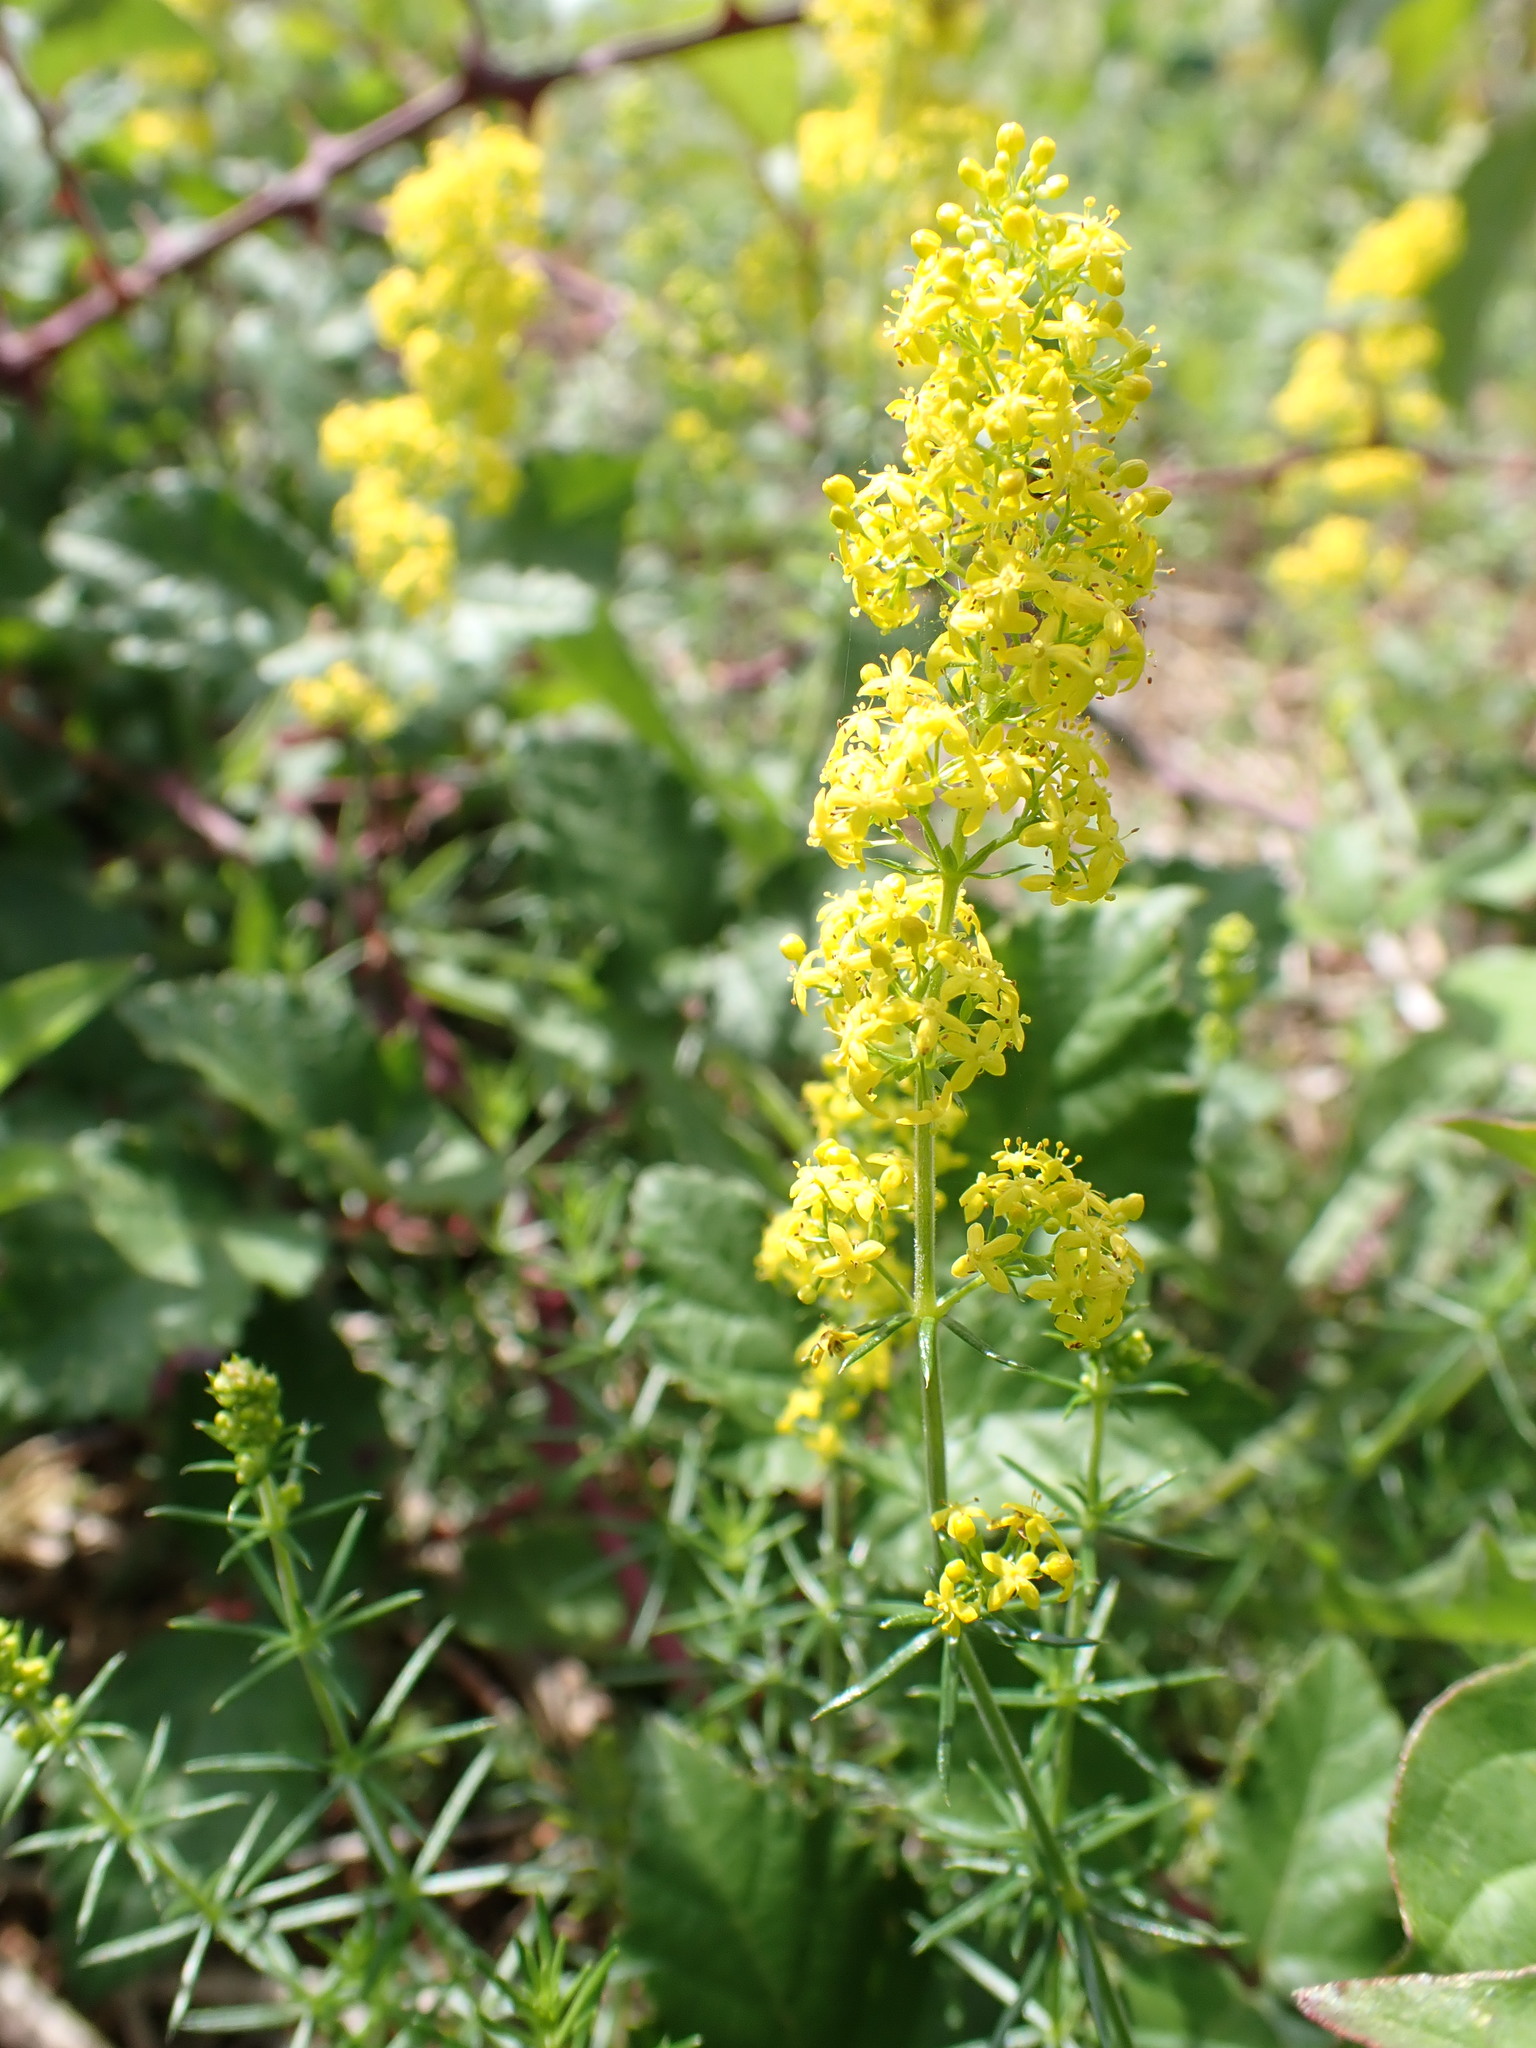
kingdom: Plantae
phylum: Tracheophyta
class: Magnoliopsida
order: Gentianales
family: Rubiaceae
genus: Galium
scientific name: Galium verum
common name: Lady's bedstraw
